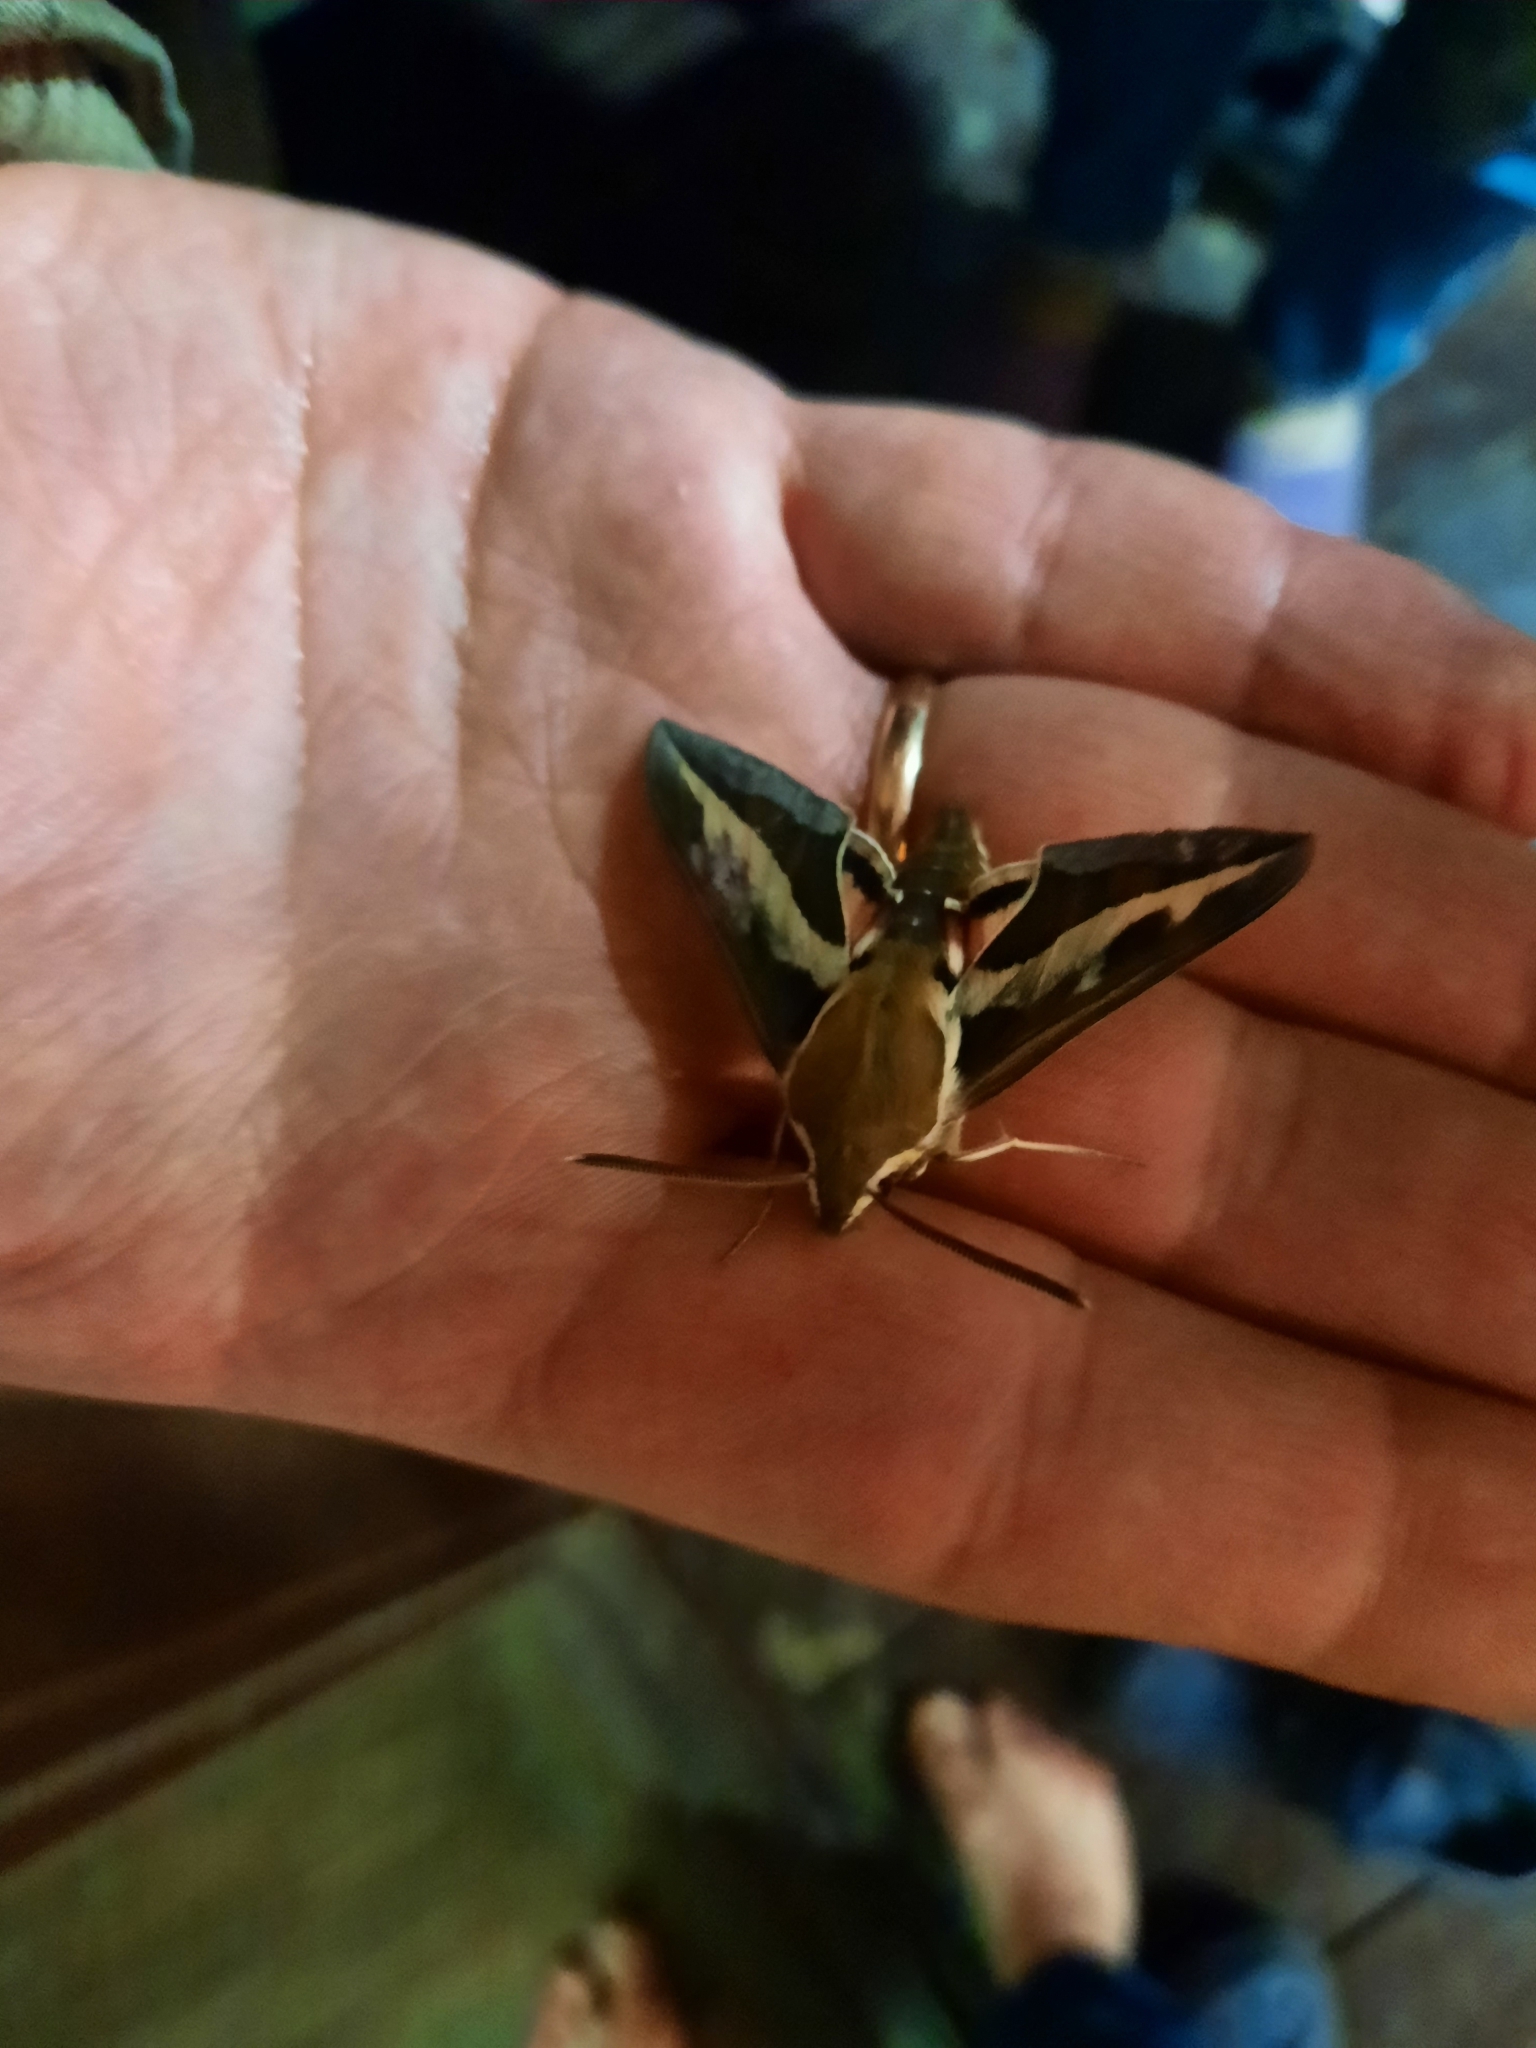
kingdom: Animalia
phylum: Arthropoda
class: Insecta
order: Lepidoptera
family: Sphingidae
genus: Hyles
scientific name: Hyles gallii
